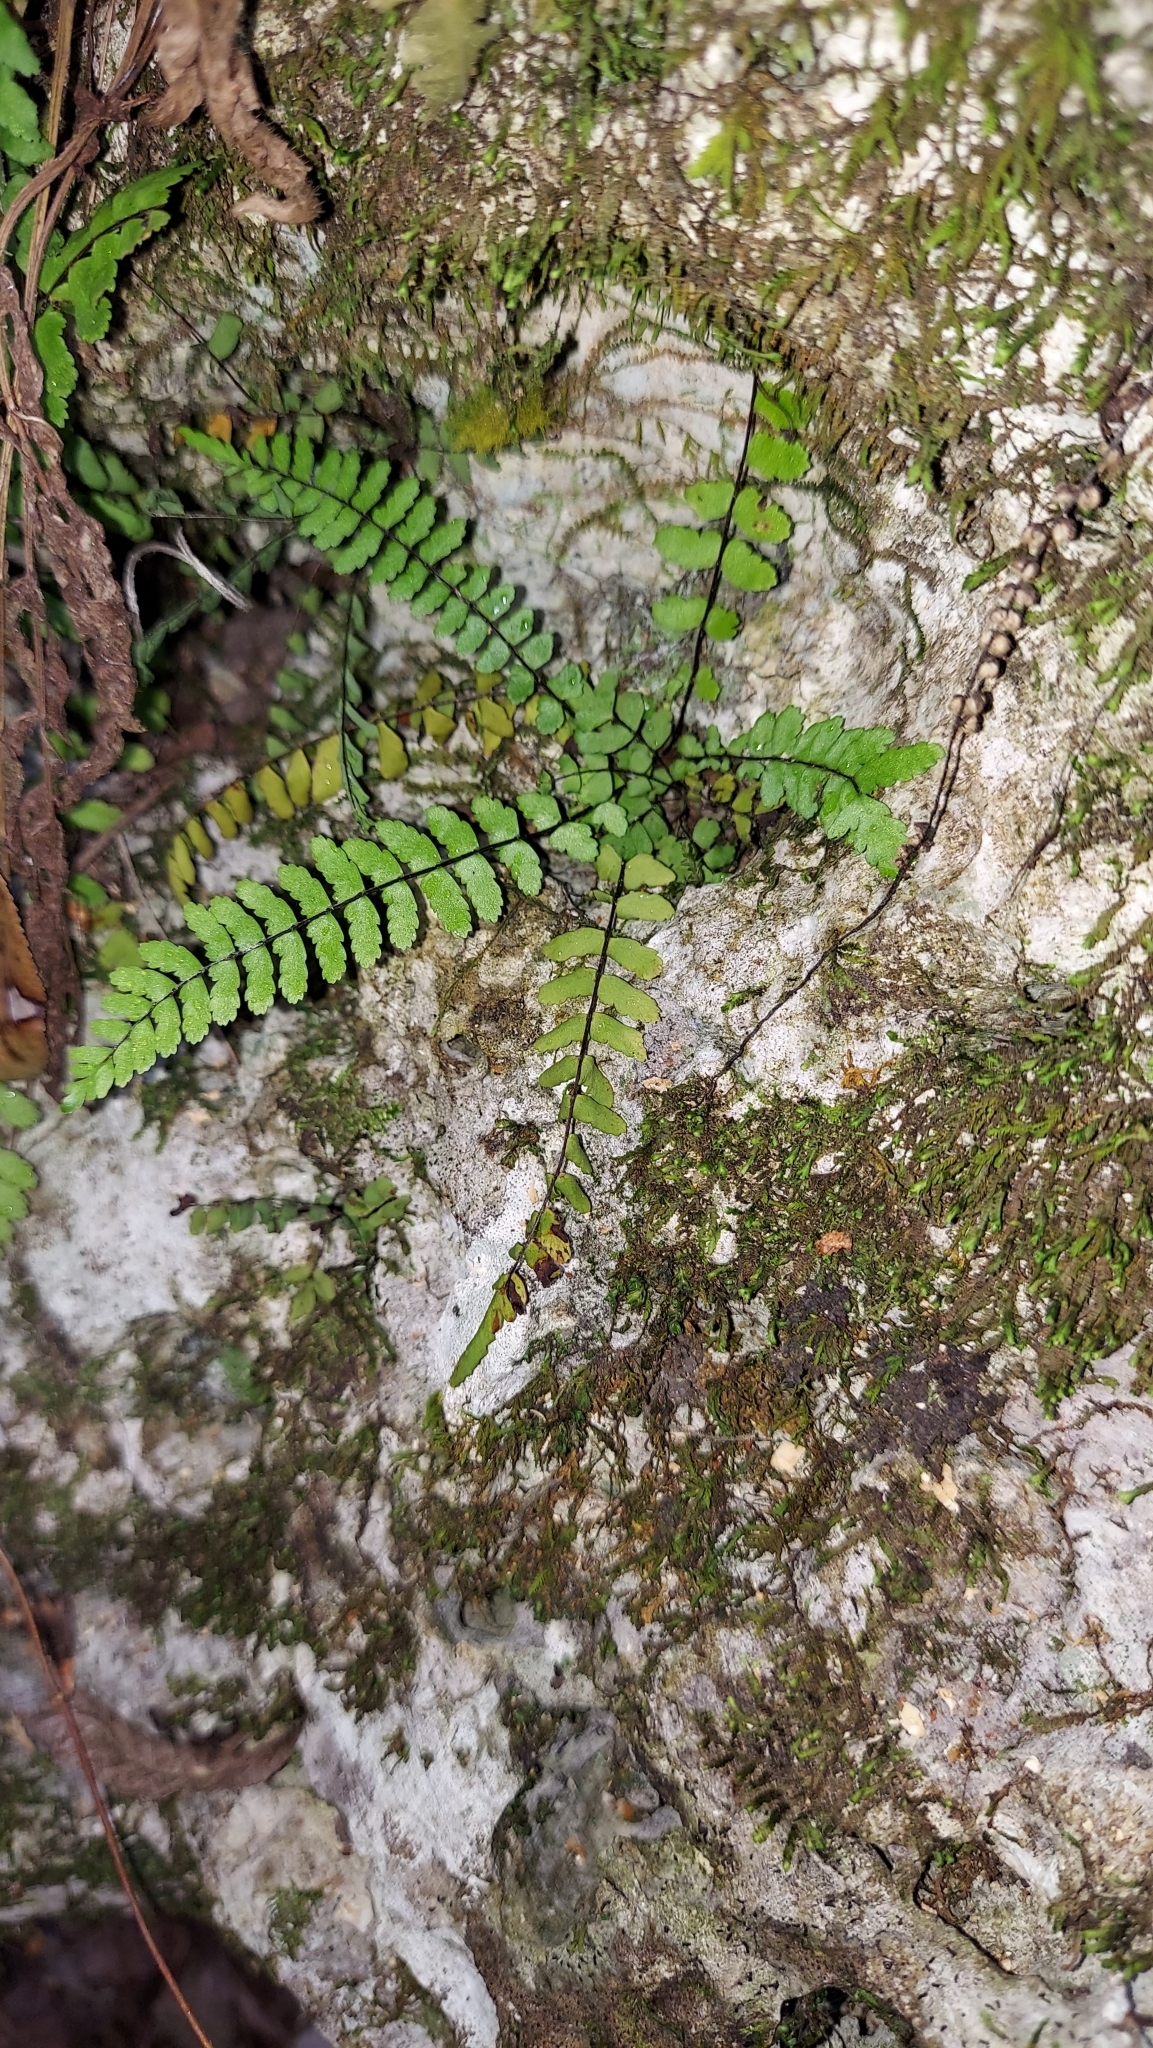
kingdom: Plantae
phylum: Tracheophyta
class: Polypodiopsida
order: Polypodiales
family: Aspleniaceae
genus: Asplenium
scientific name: Asplenium heteroresiliens
